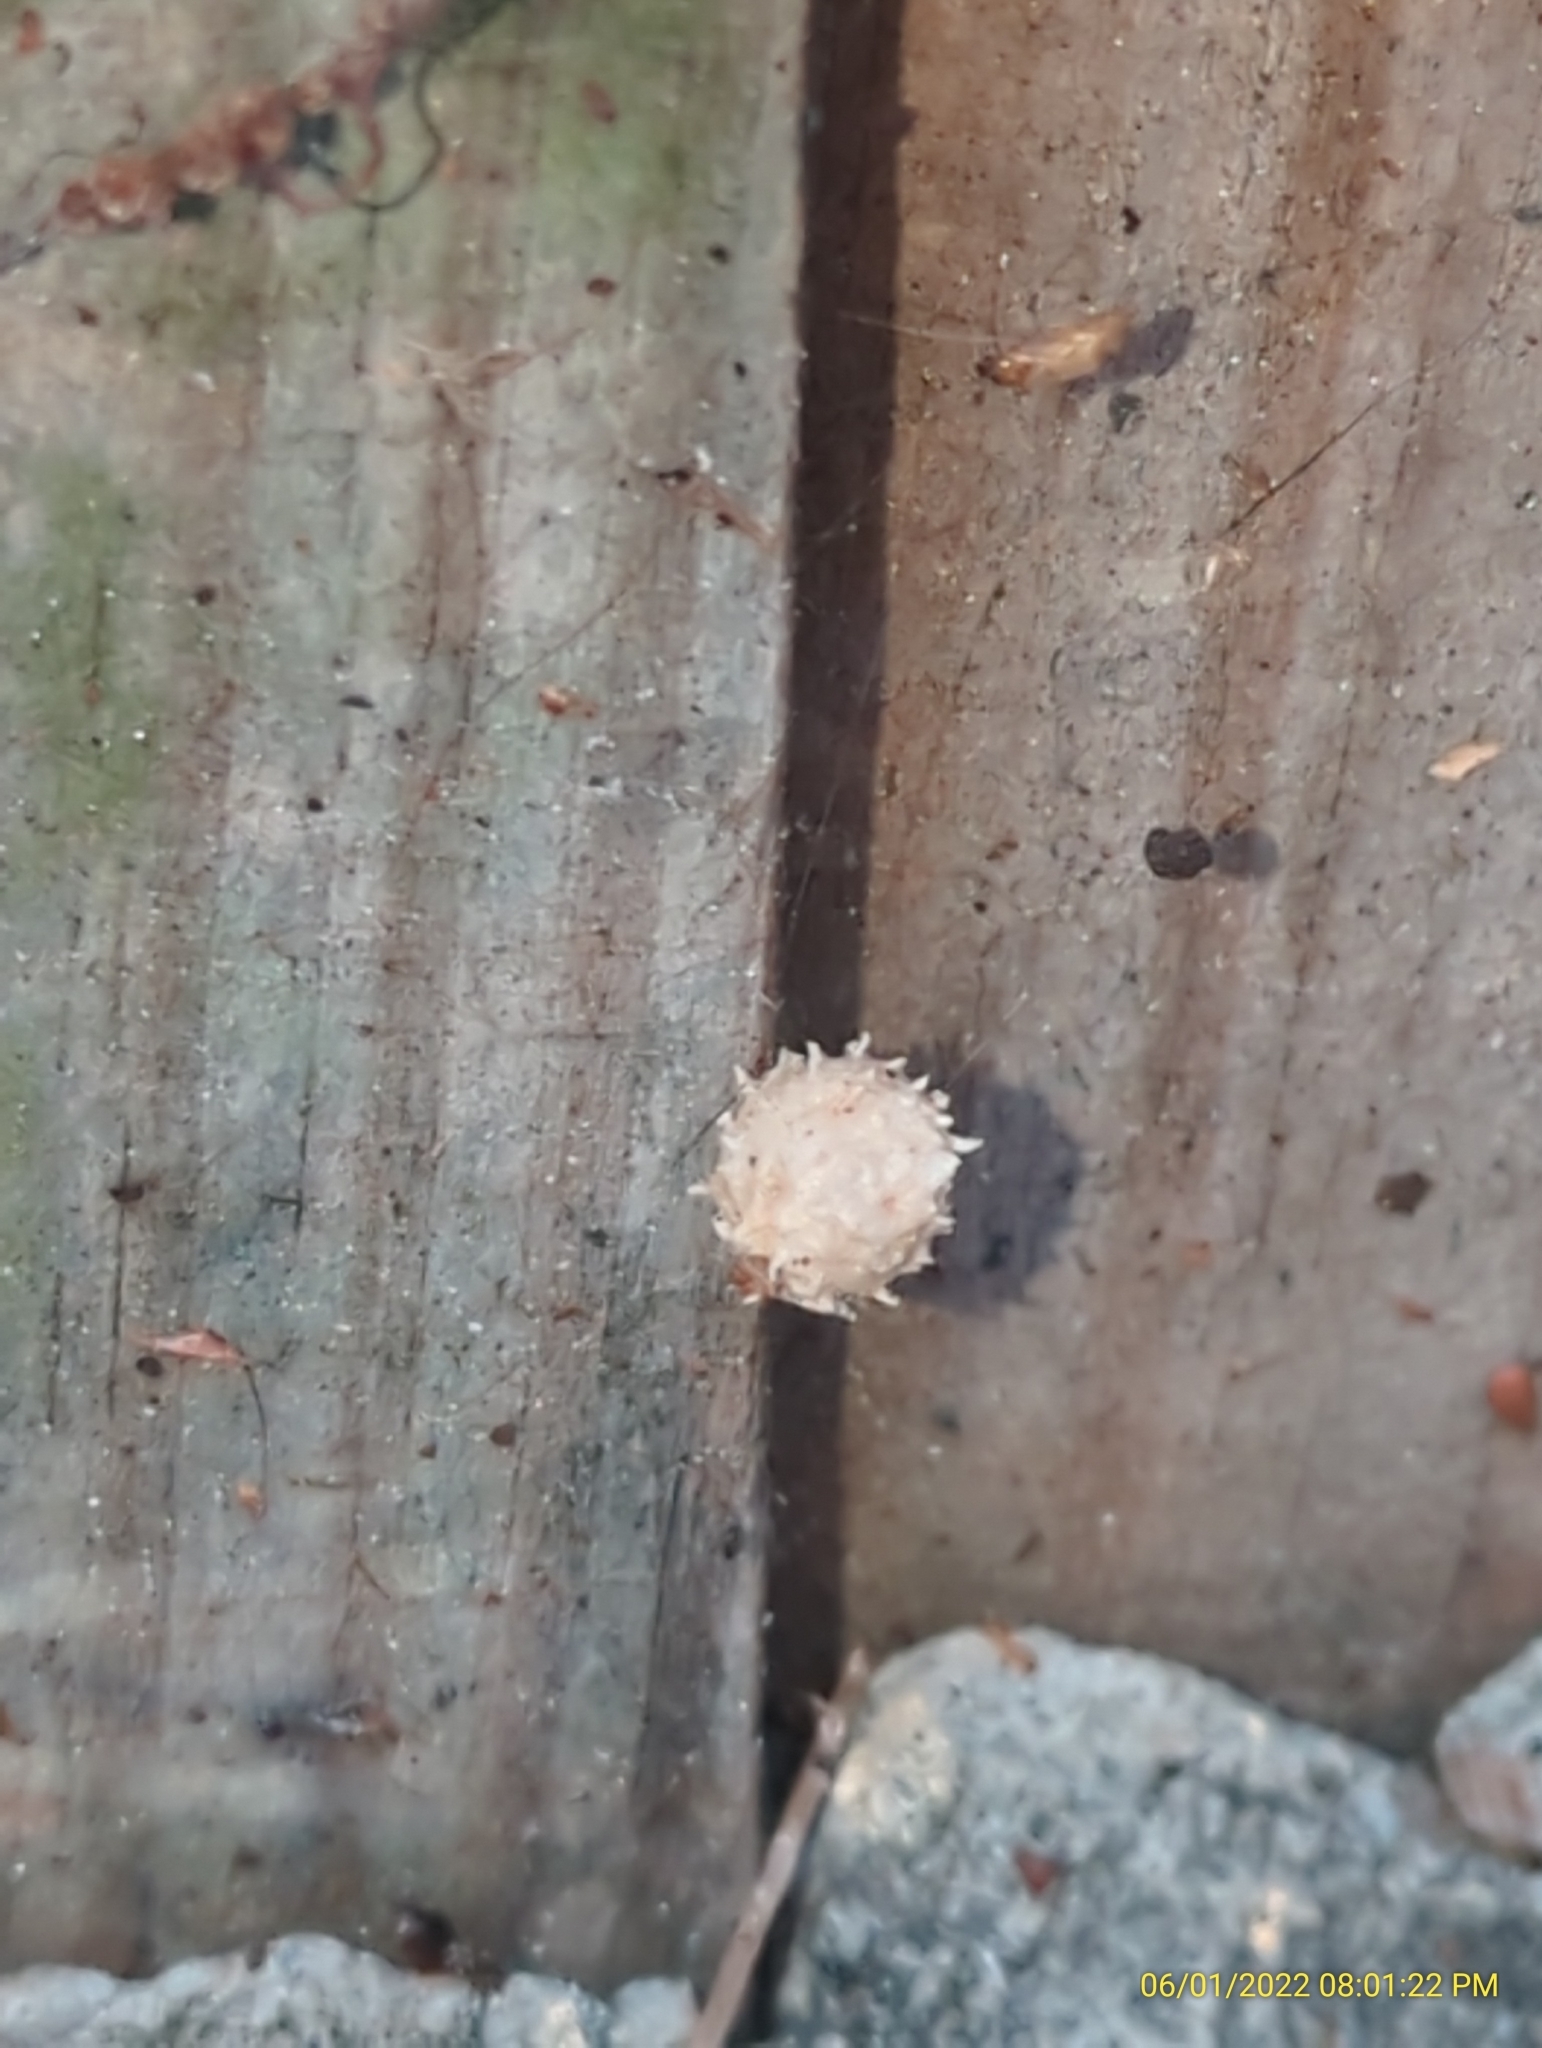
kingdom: Animalia
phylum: Arthropoda
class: Arachnida
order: Araneae
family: Theridiidae
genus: Latrodectus
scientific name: Latrodectus geometricus
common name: Brown widow spider
